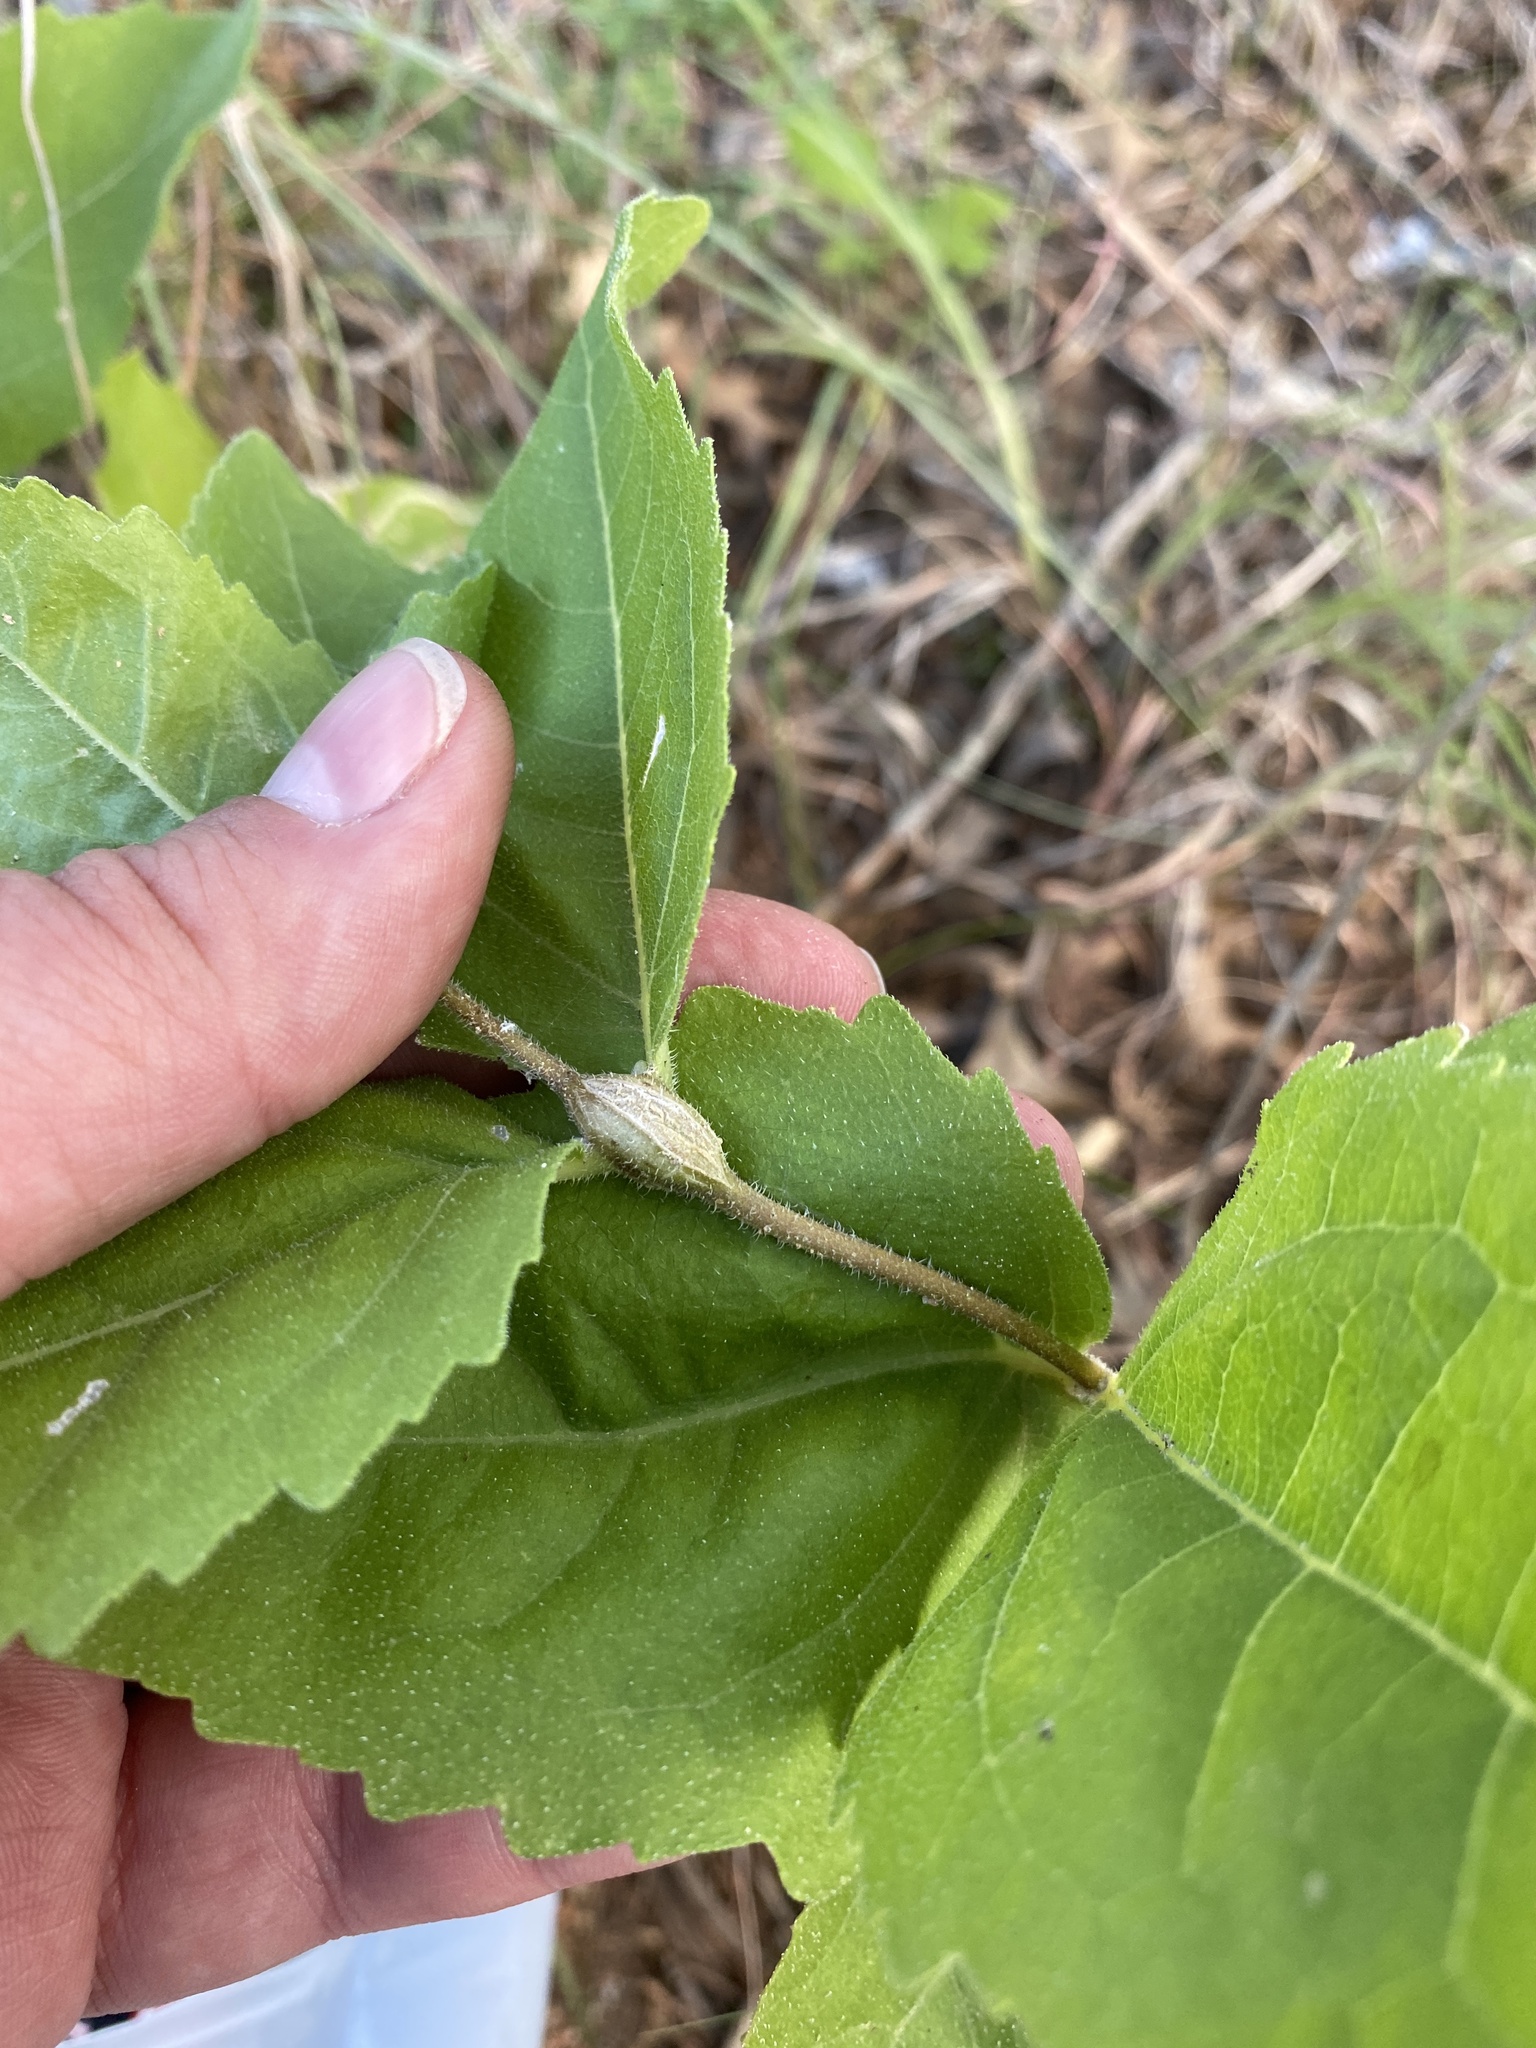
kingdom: Animalia
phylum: Arthropoda
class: Insecta
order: Diptera
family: Cecidomyiidae
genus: Neolasioptera
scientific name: Neolasioptera verbesinae
